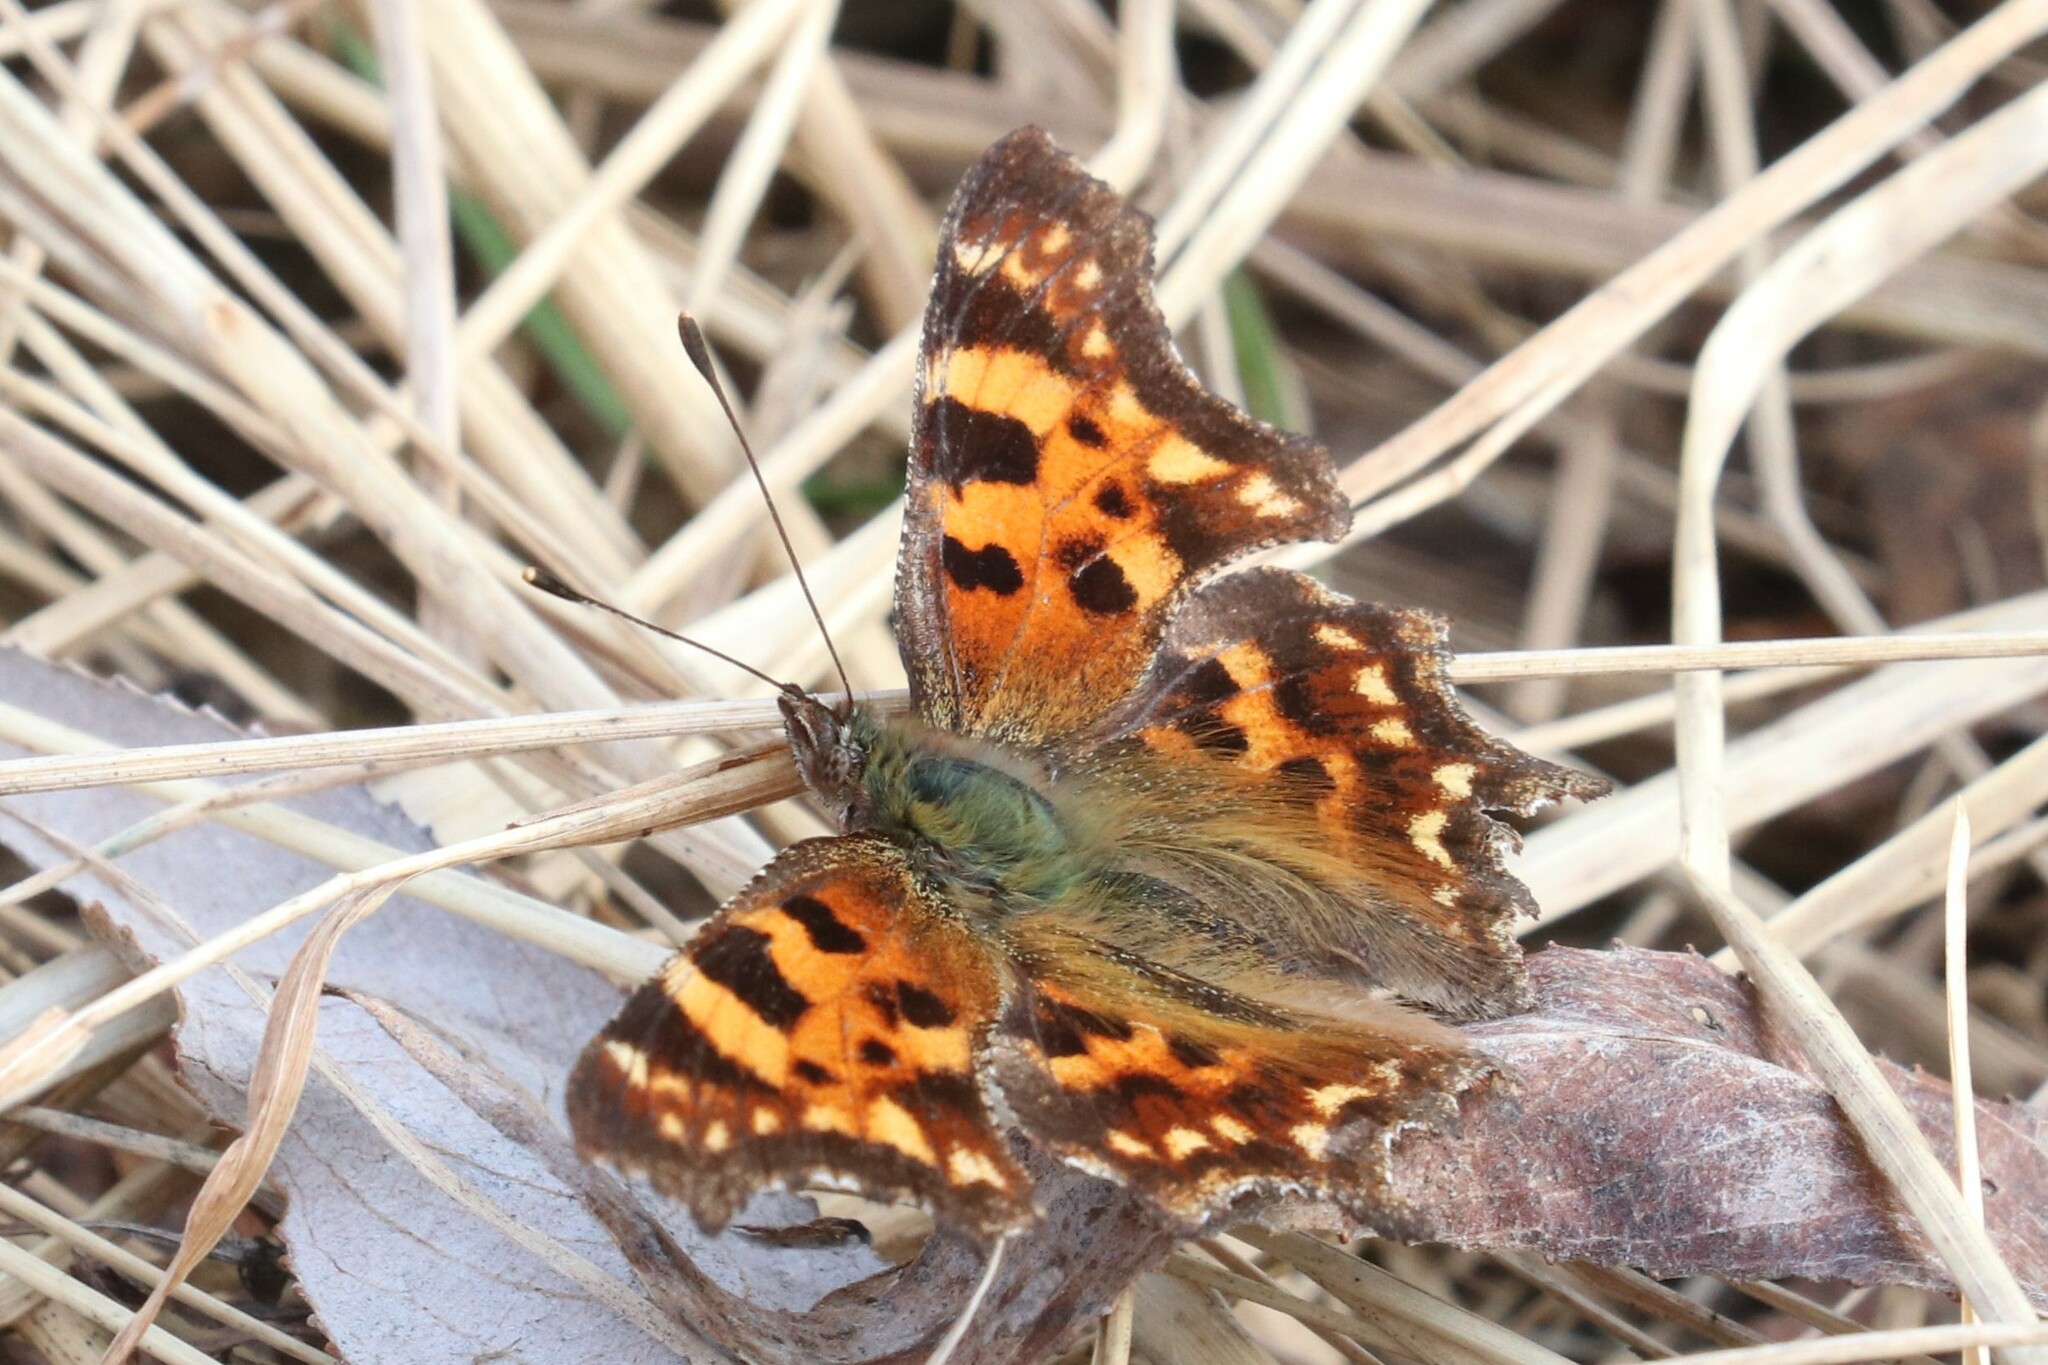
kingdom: Animalia
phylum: Arthropoda
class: Insecta
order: Lepidoptera
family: Nymphalidae
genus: Polygonia
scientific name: Polygonia c-album
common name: Comma
